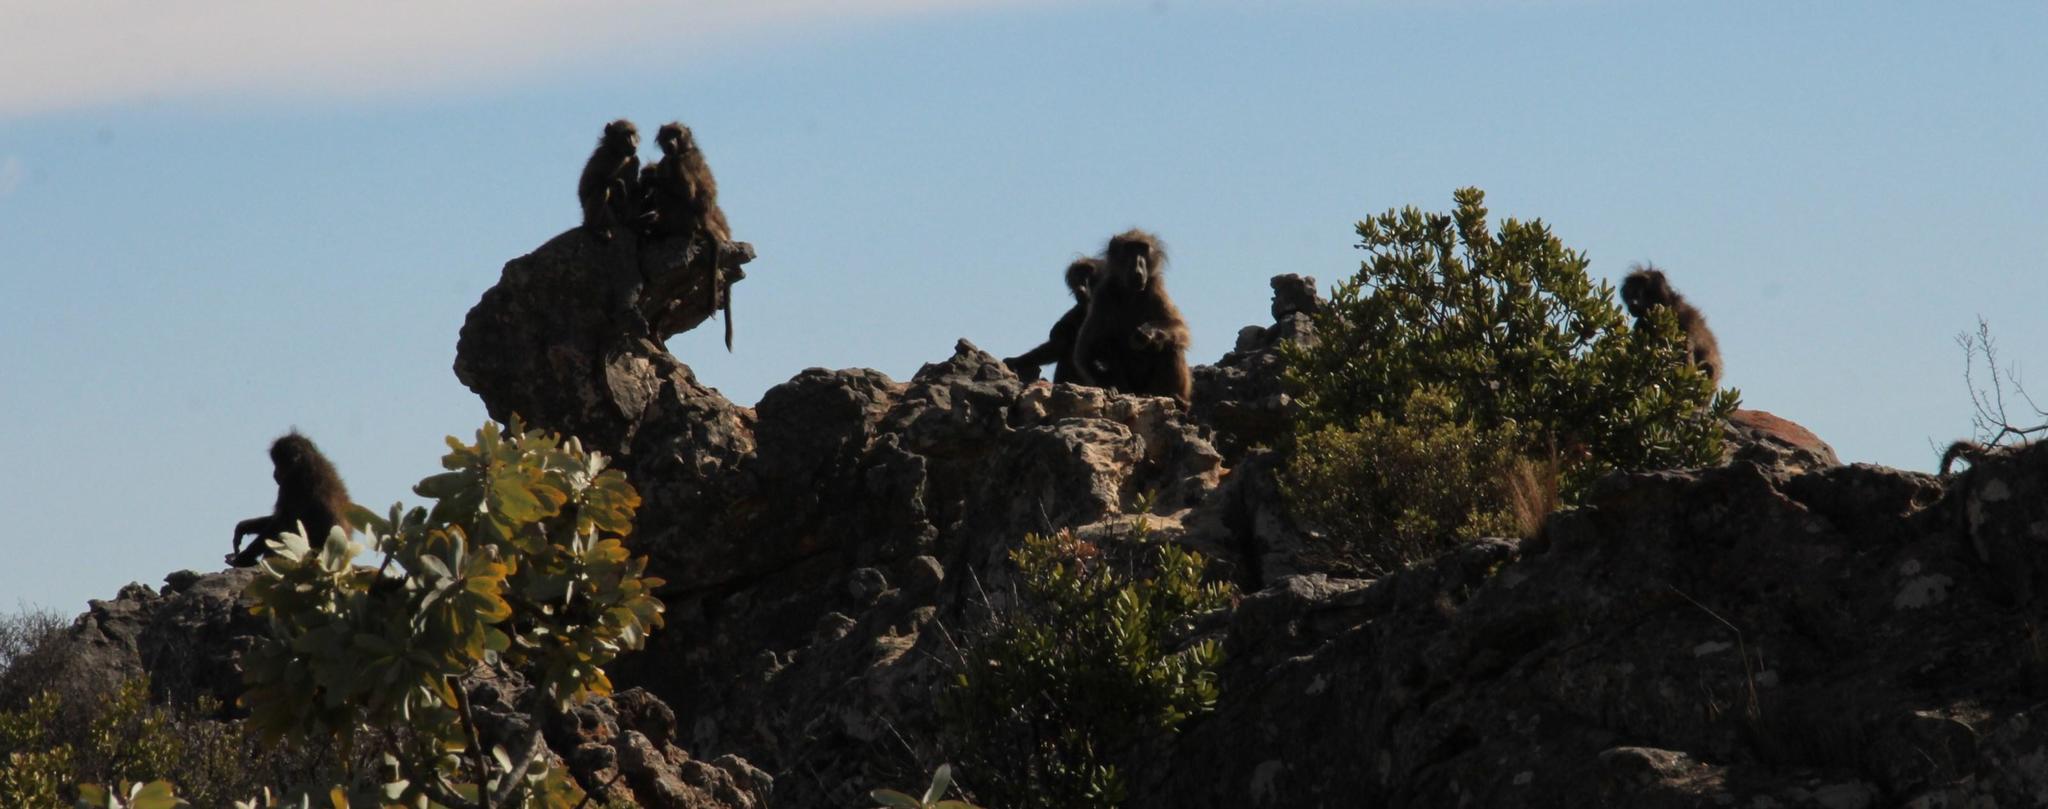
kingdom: Animalia
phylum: Chordata
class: Mammalia
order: Primates
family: Cercopithecidae
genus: Papio
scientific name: Papio ursinus
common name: Chacma baboon
